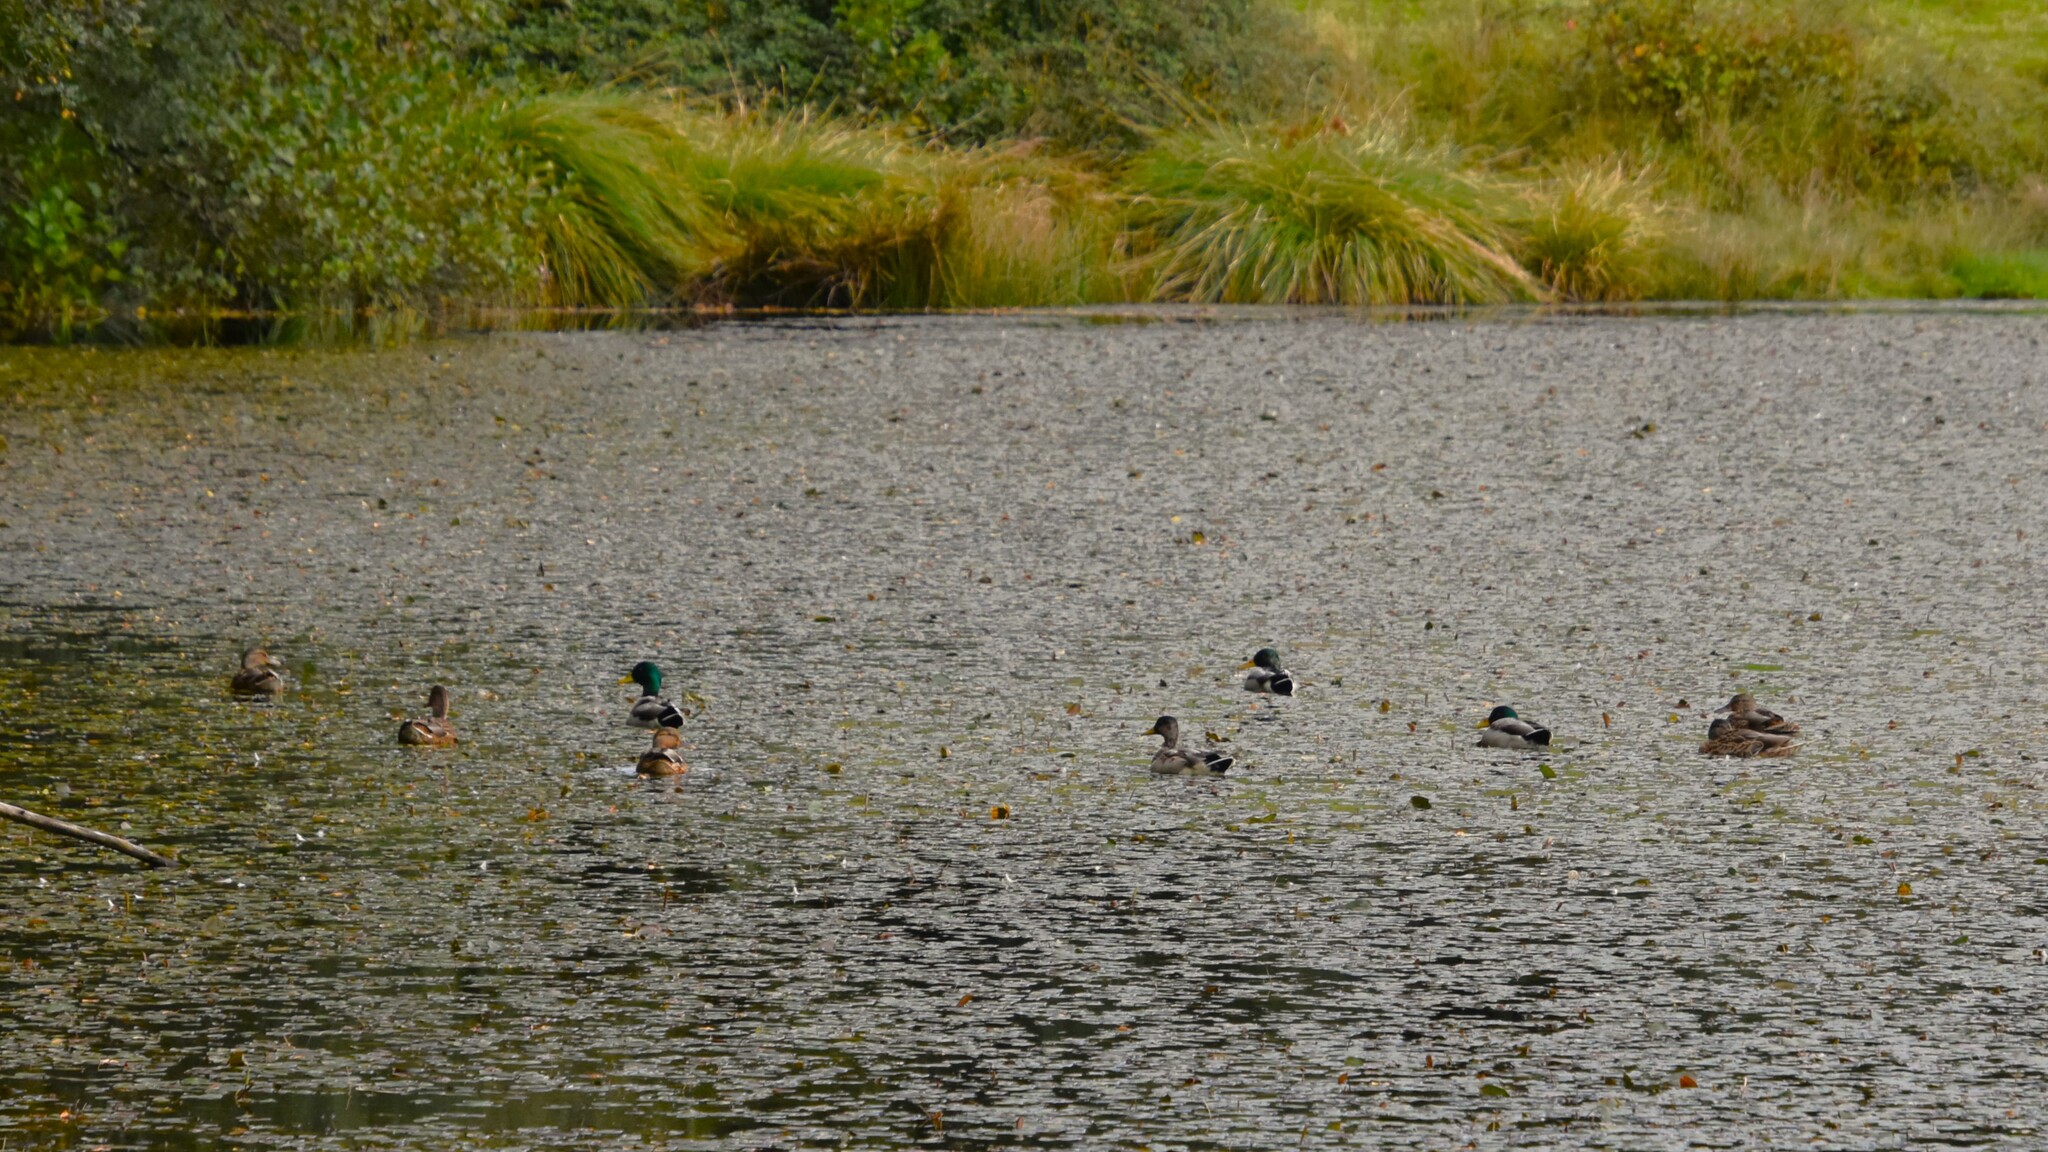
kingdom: Animalia
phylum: Chordata
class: Aves
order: Anseriformes
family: Anatidae
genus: Anas
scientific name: Anas platyrhynchos
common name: Mallard
